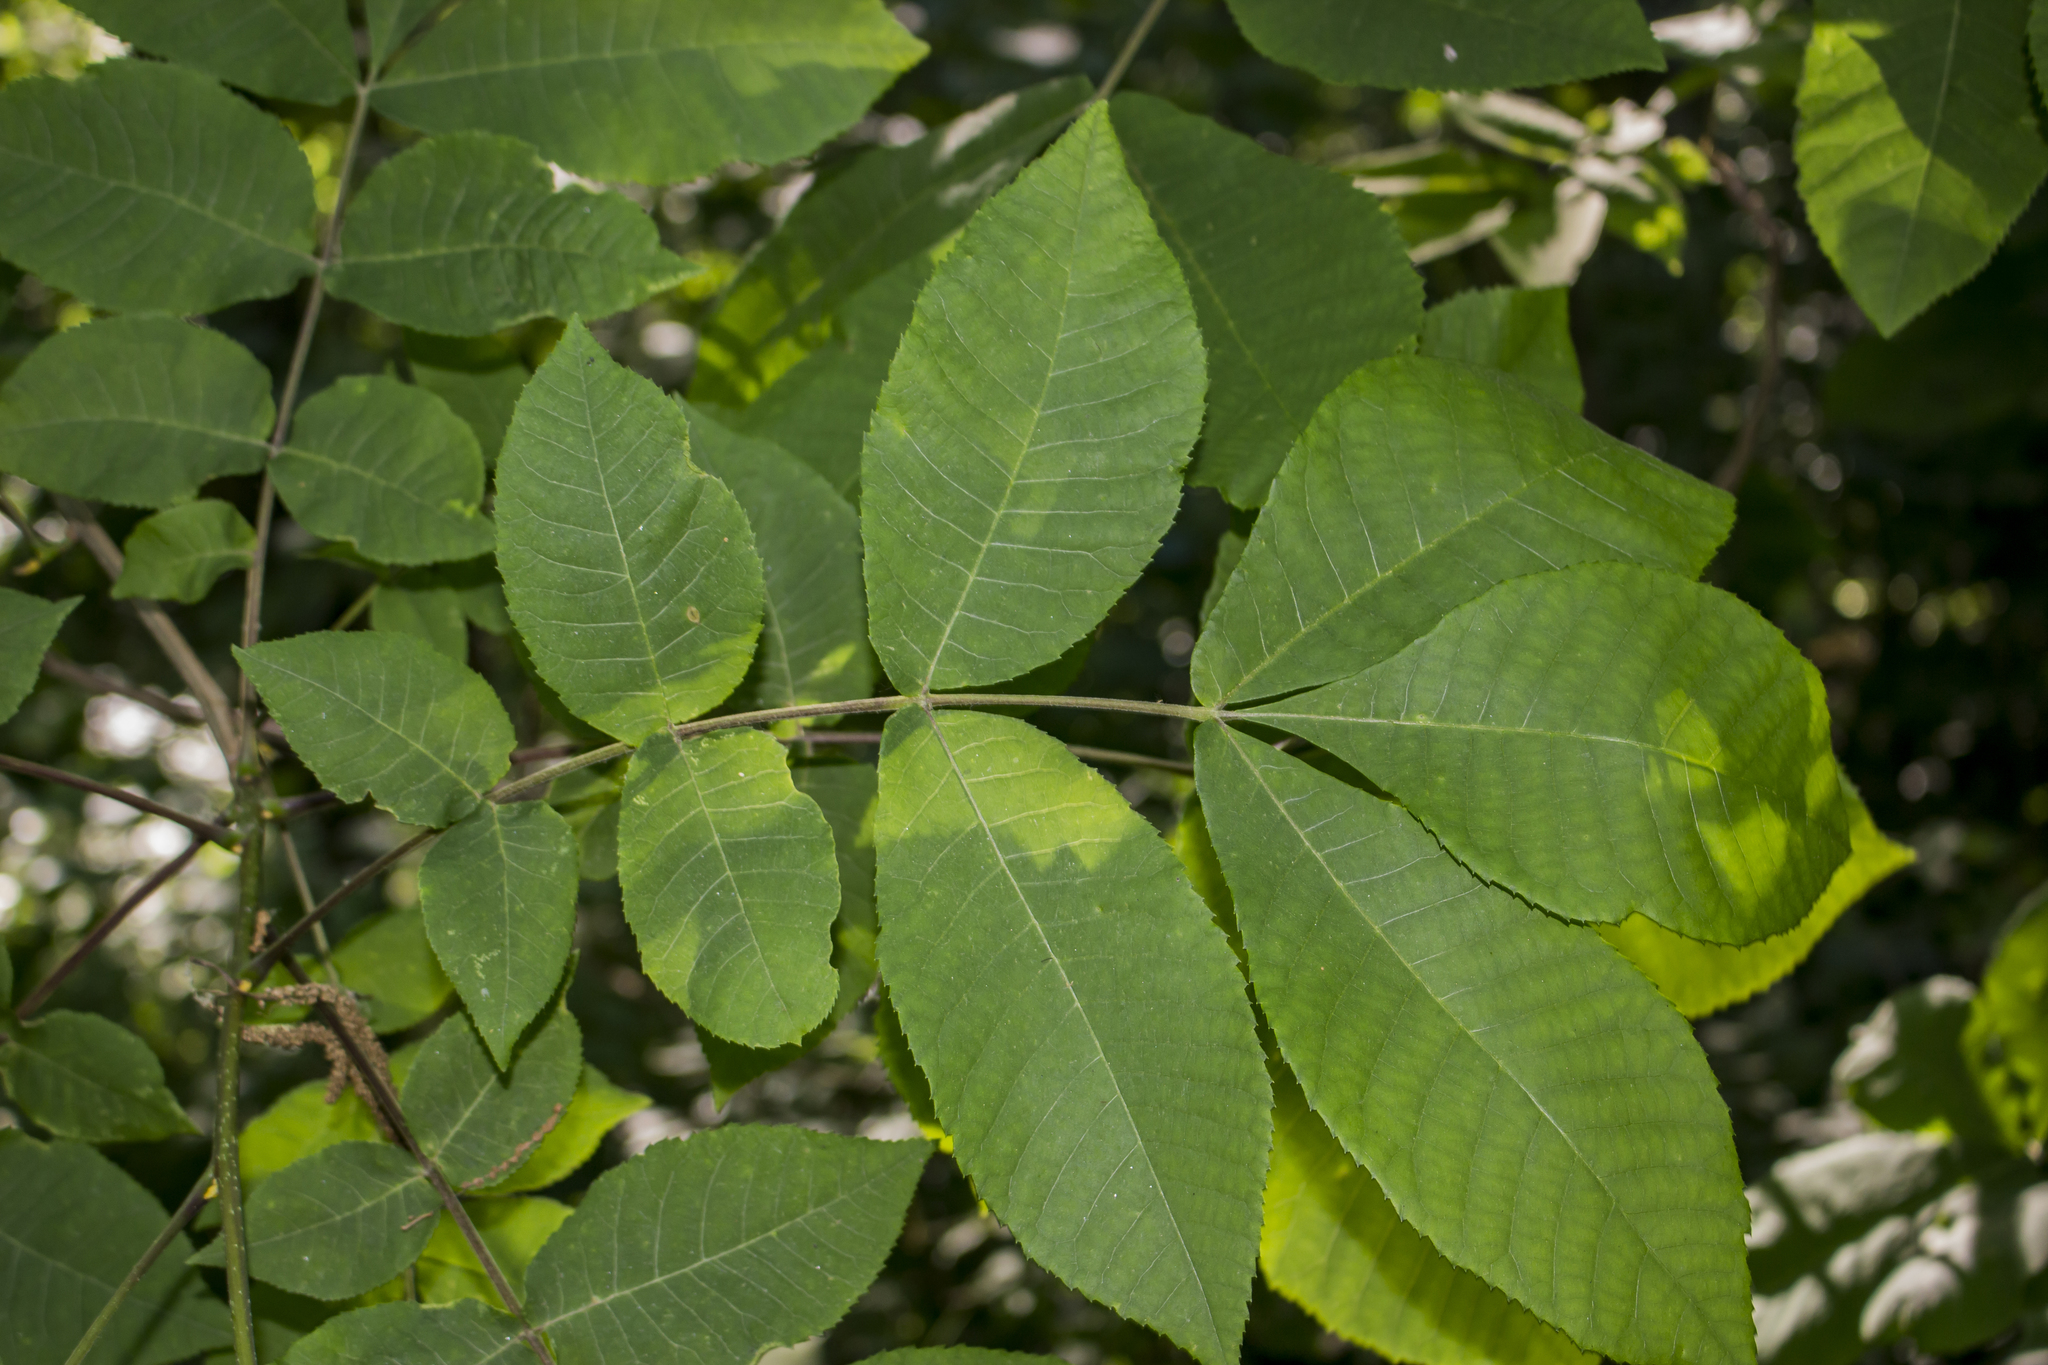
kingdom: Plantae
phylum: Tracheophyta
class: Magnoliopsida
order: Fagales
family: Juglandaceae
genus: Carya
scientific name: Carya cordiformis
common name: Bitternut hickory
